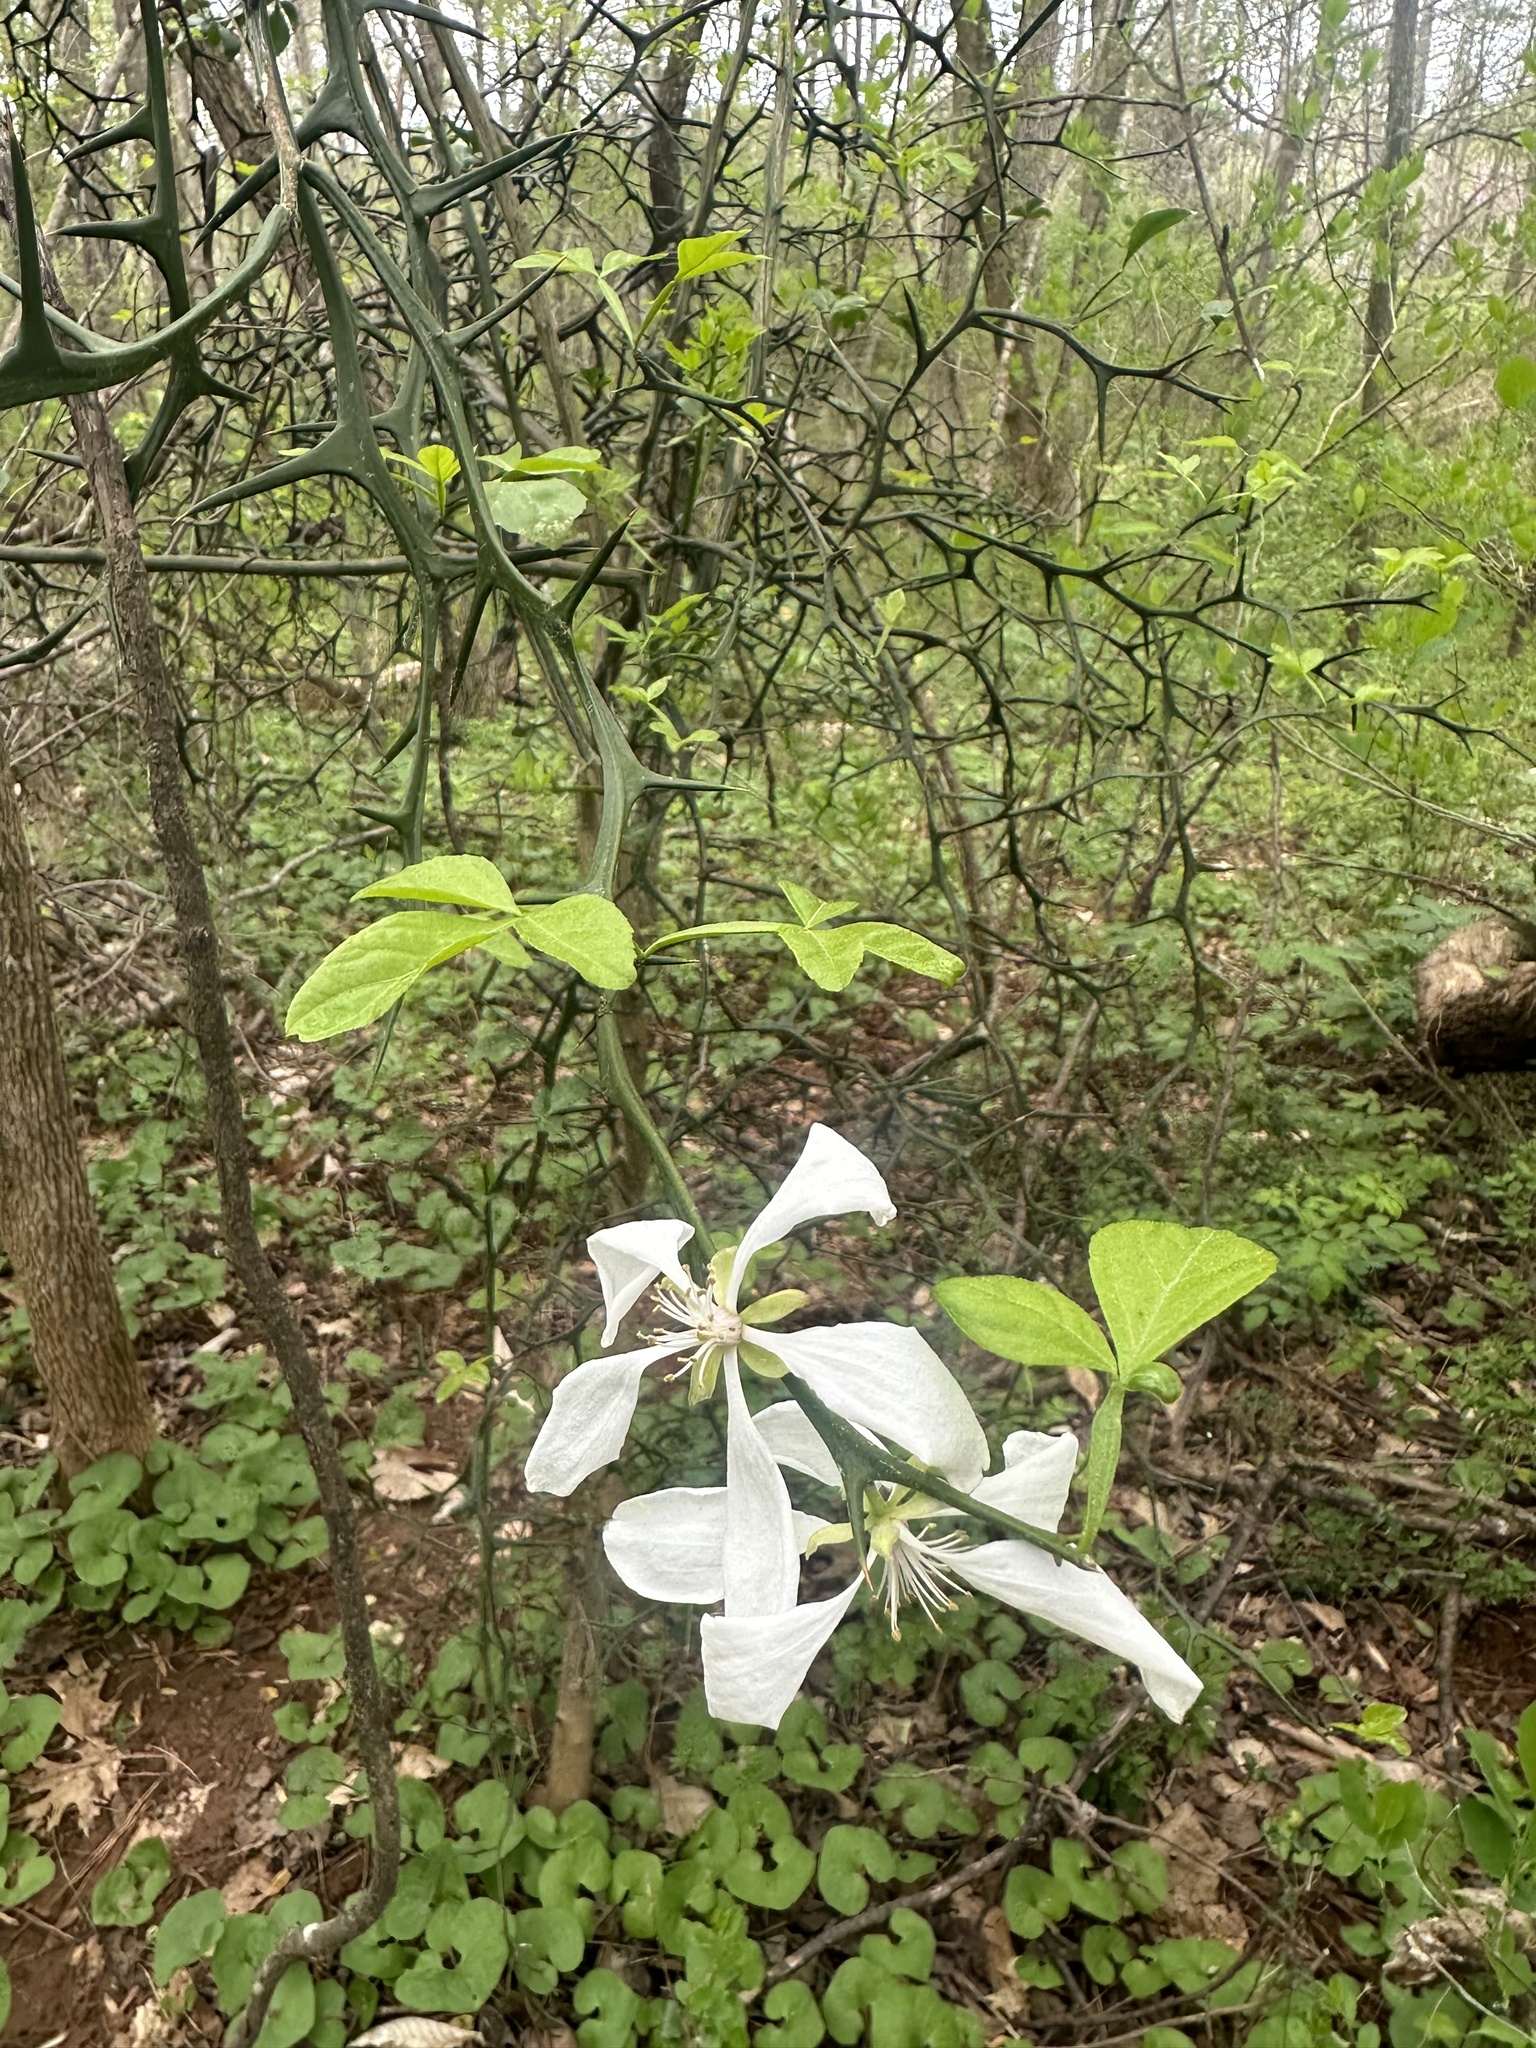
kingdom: Plantae
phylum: Tracheophyta
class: Magnoliopsida
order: Sapindales
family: Rutaceae
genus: Citrus
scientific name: Citrus trifoliata
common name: Japanese bitter-orange
